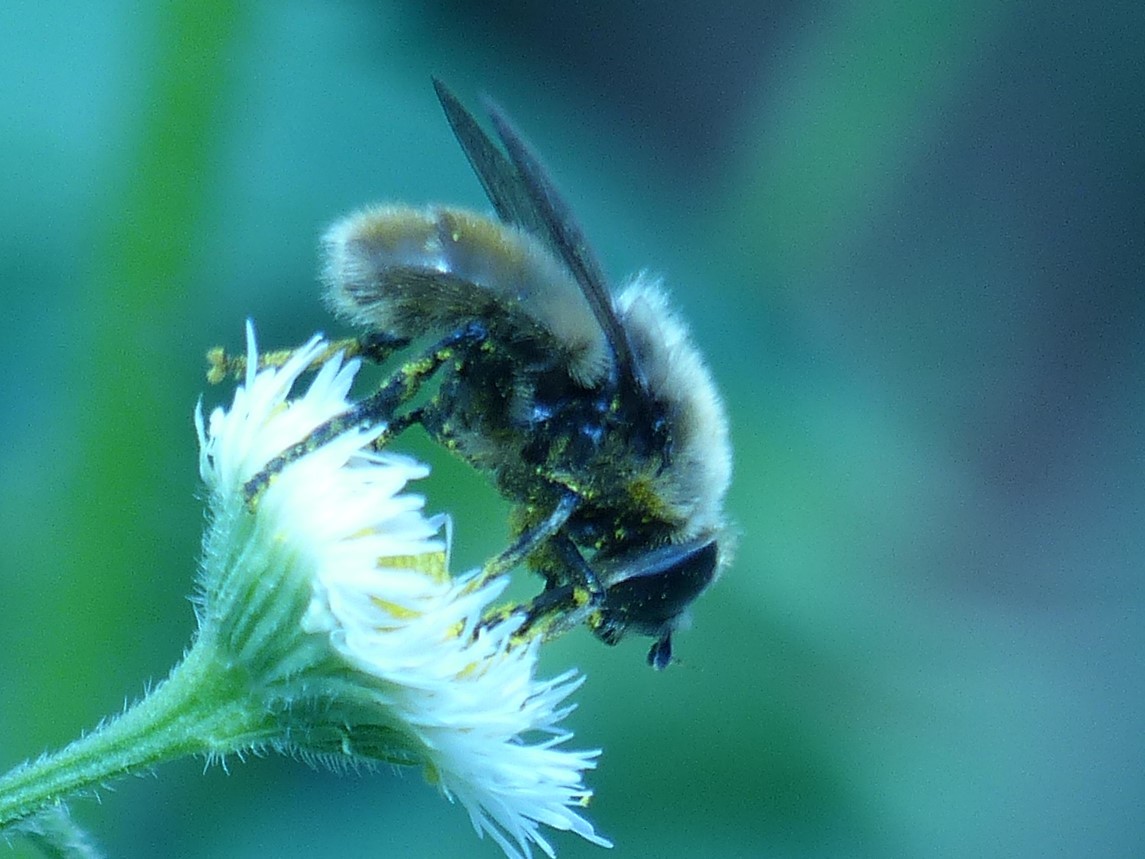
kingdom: Animalia
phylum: Arthropoda
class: Insecta
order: Diptera
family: Syrphidae
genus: Merodon
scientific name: Merodon equestris
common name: Greater bulb-fly
